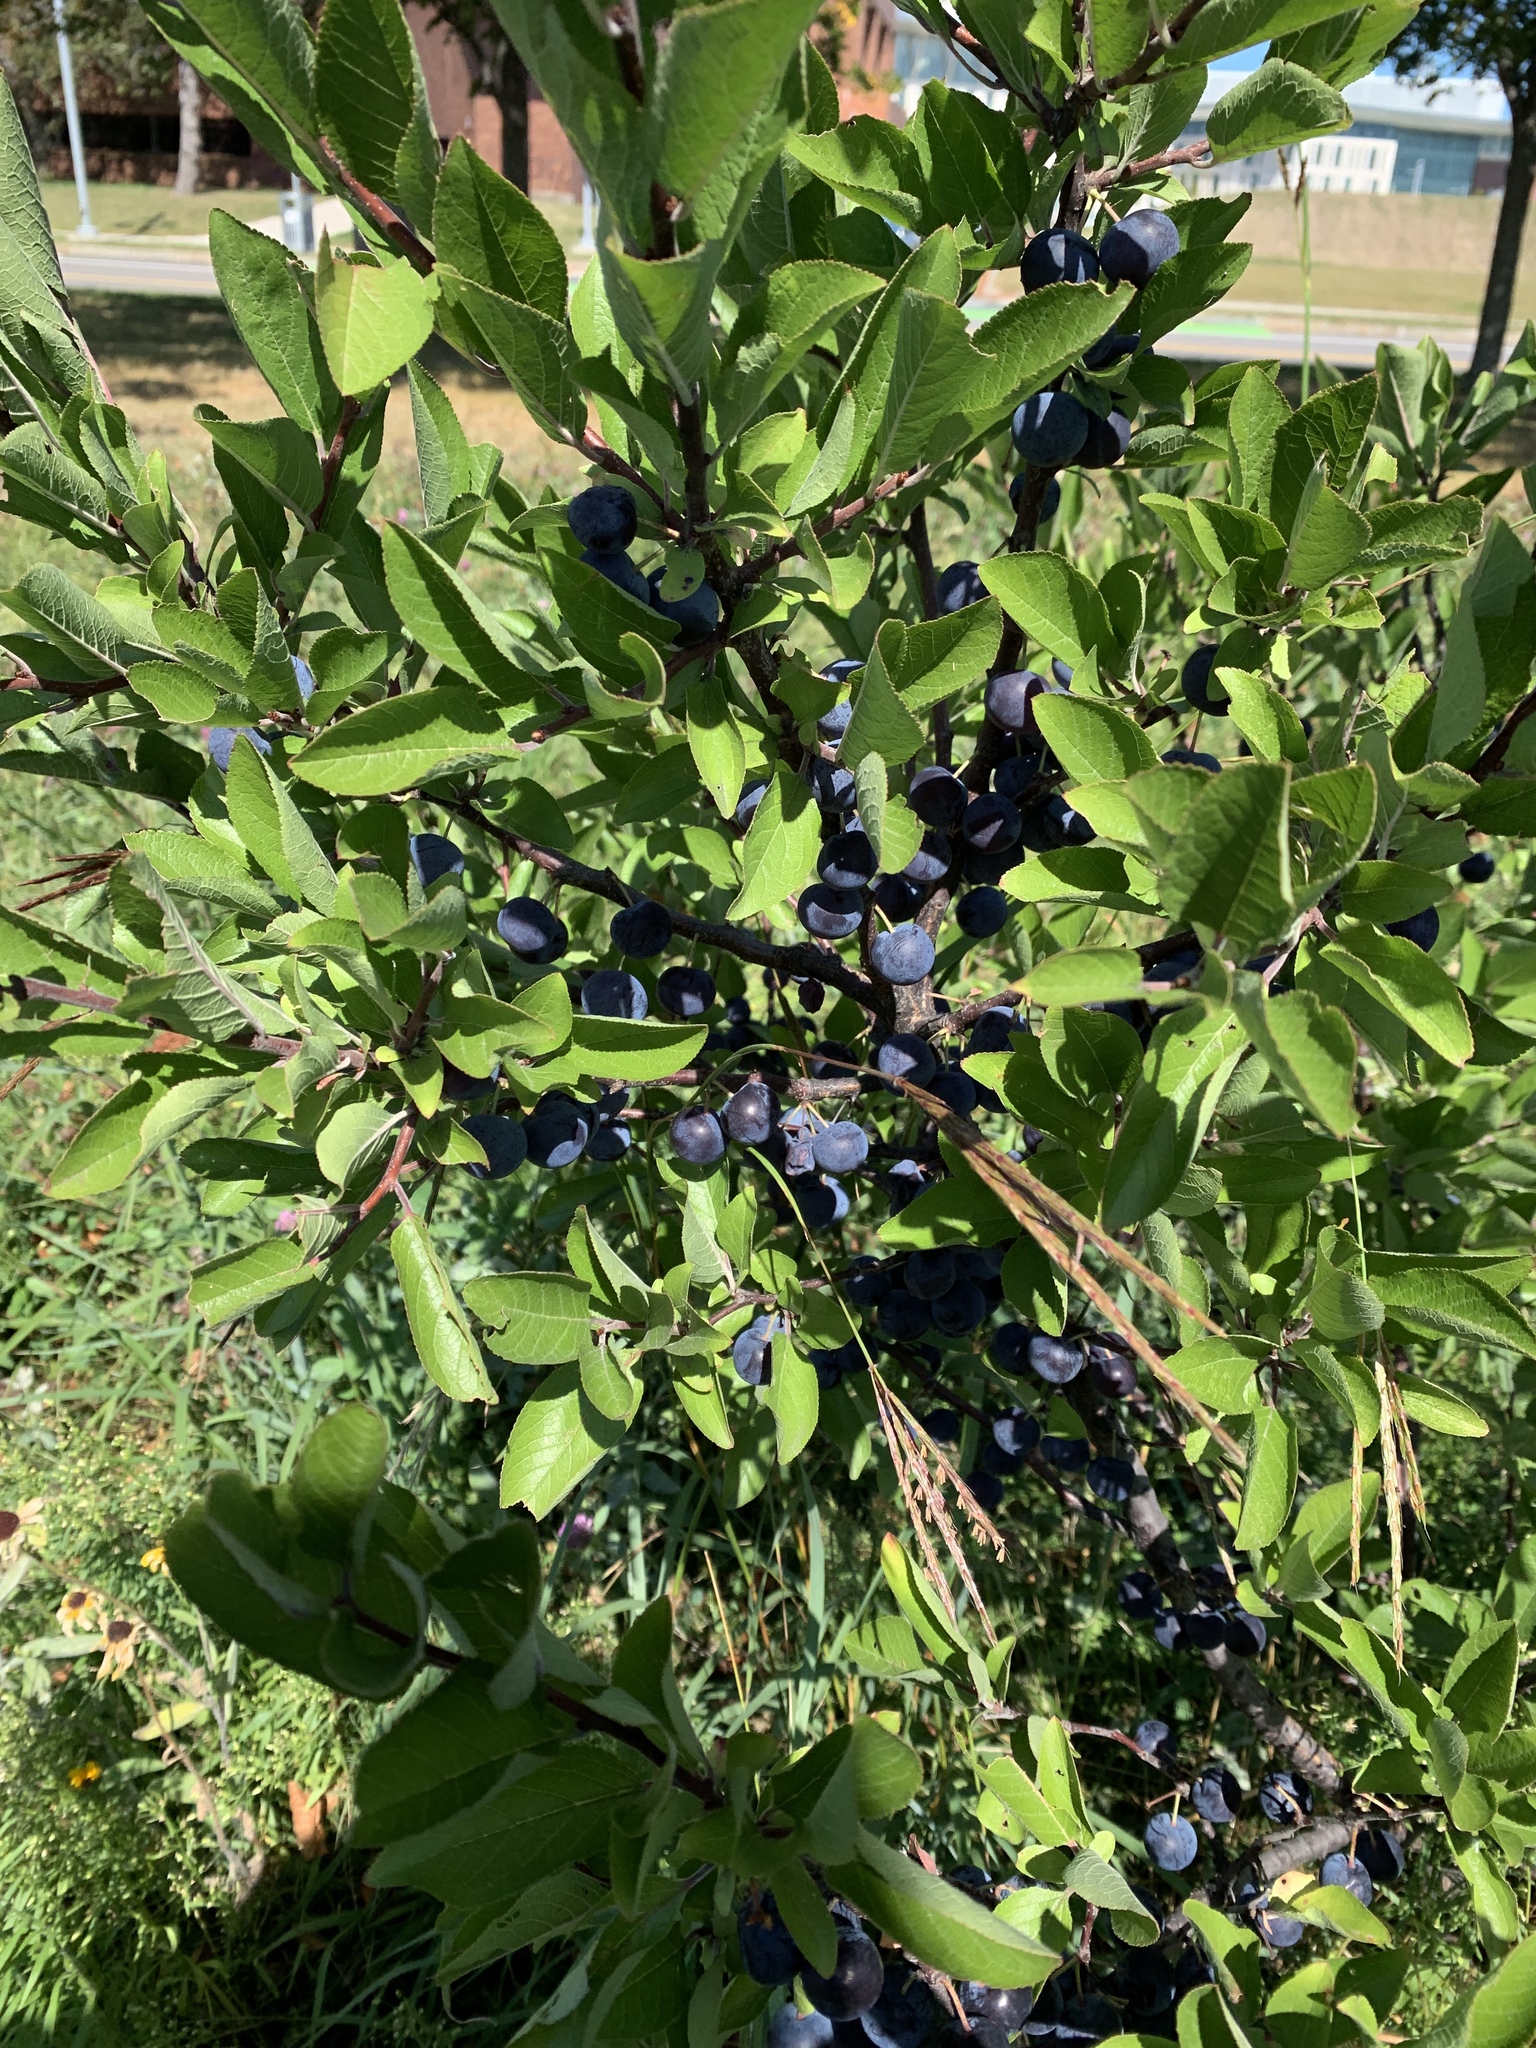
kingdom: Plantae
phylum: Tracheophyta
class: Magnoliopsida
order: Rosales
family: Rosaceae
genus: Prunus
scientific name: Prunus maritima
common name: Beach plum
